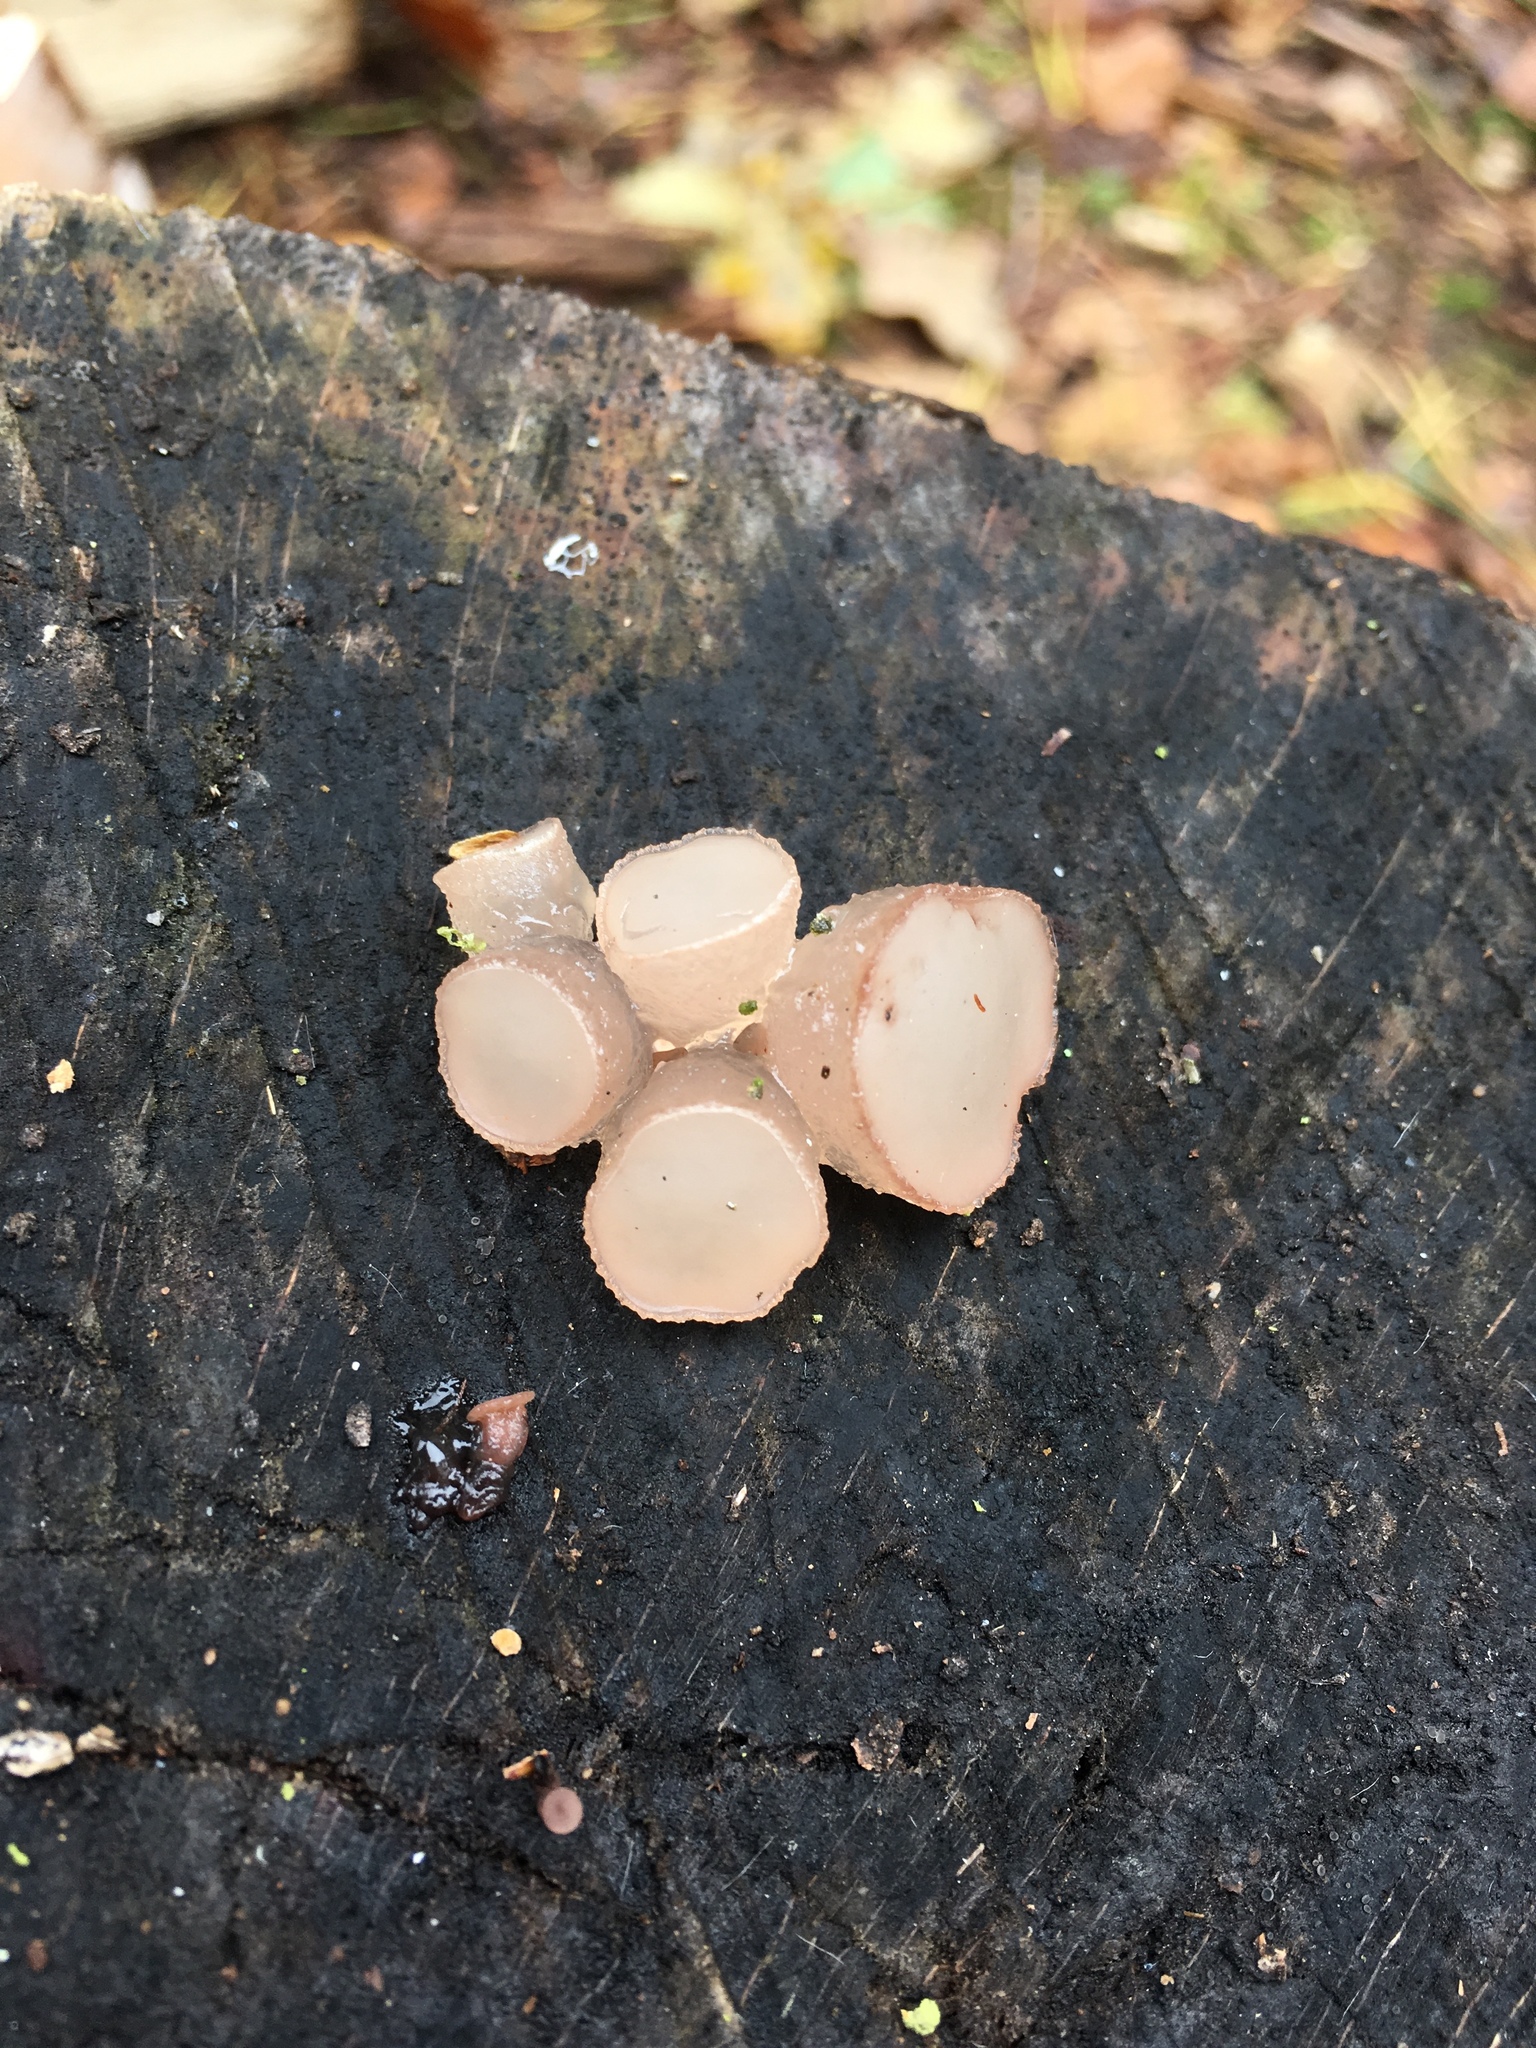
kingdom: Fungi
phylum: Ascomycota
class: Leotiomycetes
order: Helotiales
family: Gelatinodiscaceae
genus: Neobulgaria
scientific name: Neobulgaria pura
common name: Beech jelly-disc
